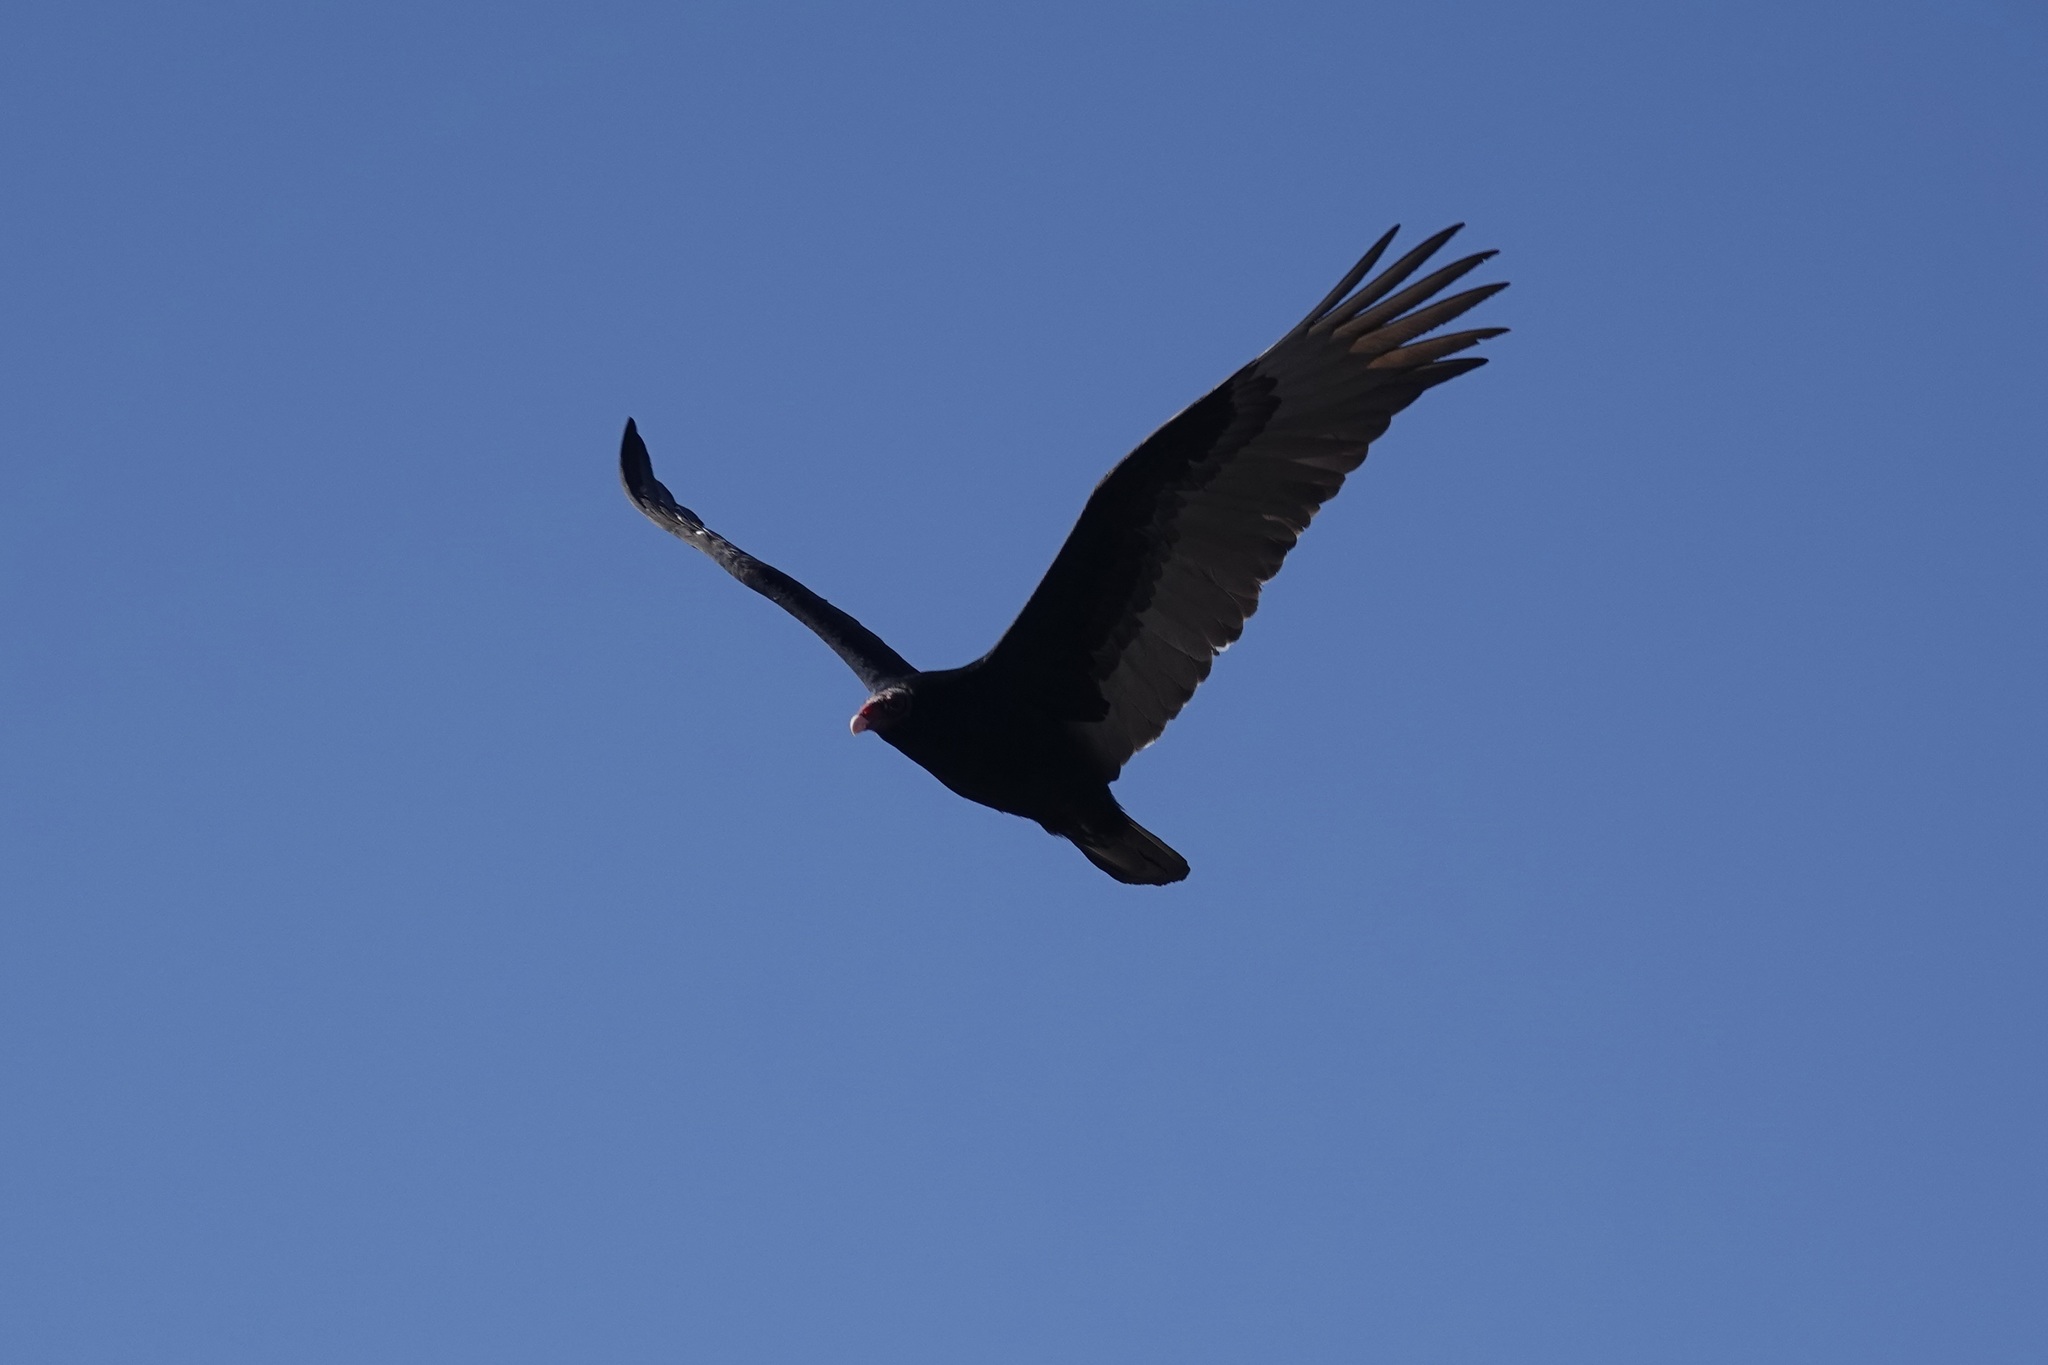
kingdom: Animalia
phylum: Chordata
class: Aves
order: Accipitriformes
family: Cathartidae
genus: Cathartes
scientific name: Cathartes aura
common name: Turkey vulture
